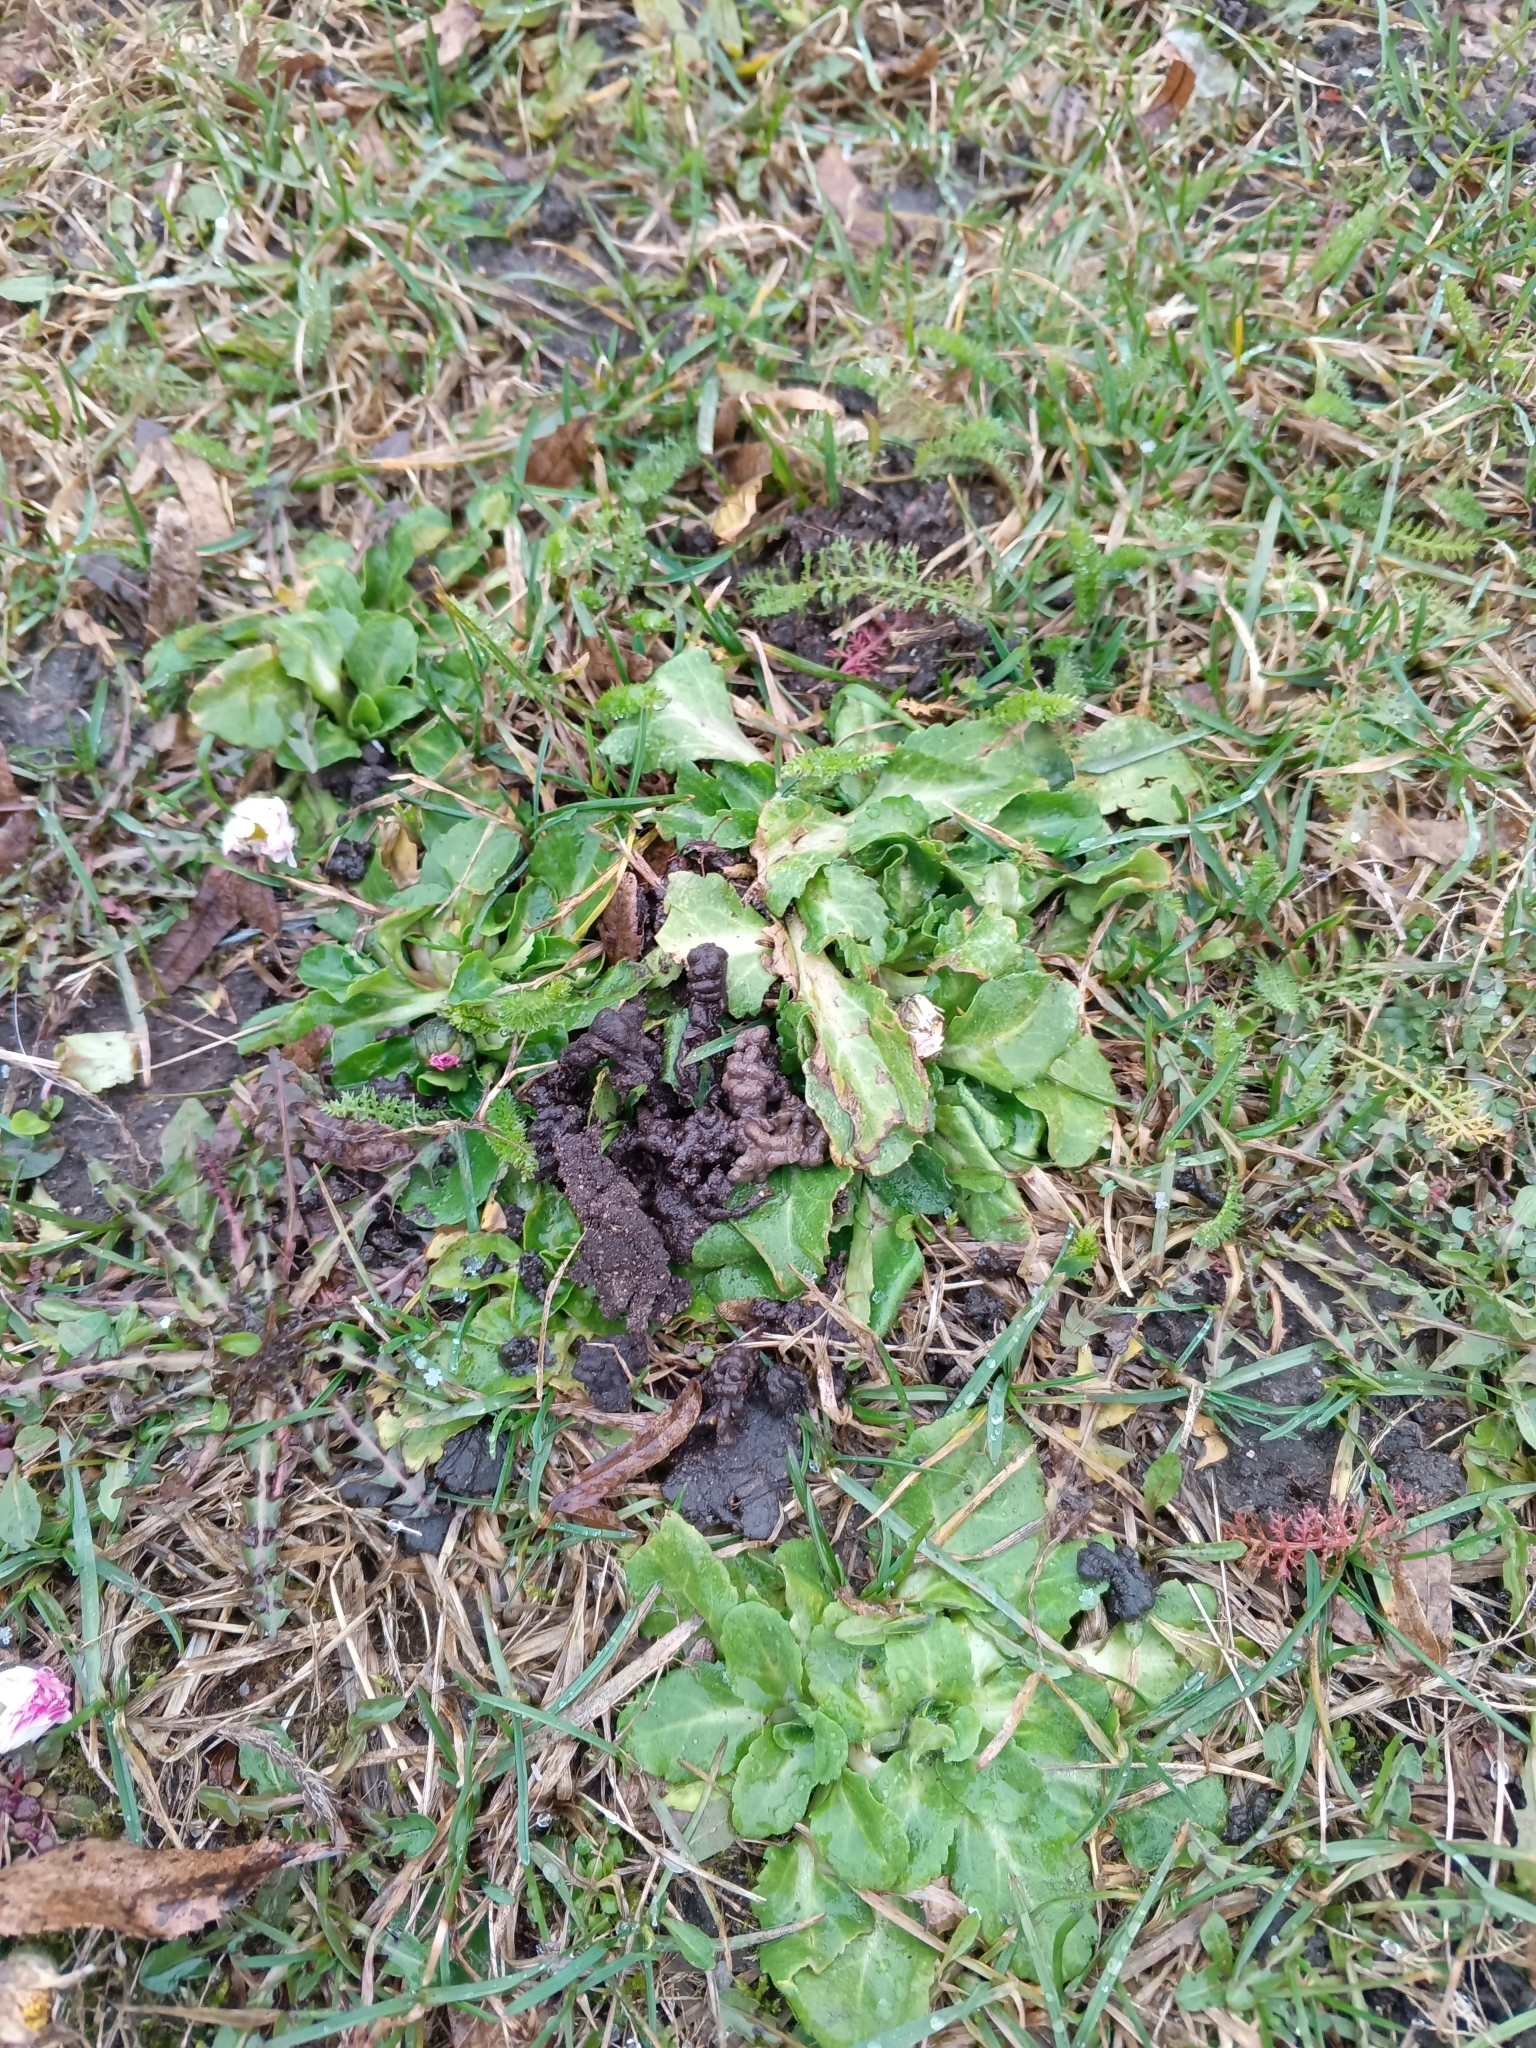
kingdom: Plantae
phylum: Tracheophyta
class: Magnoliopsida
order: Asterales
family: Asteraceae
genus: Bellis
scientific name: Bellis perennis
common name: Lawndaisy
